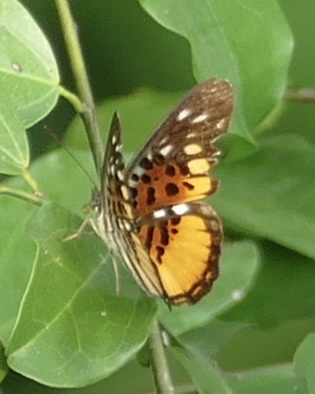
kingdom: Animalia
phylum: Arthropoda
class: Insecta
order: Lepidoptera
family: Nymphalidae
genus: Chloropoea
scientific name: Chloropoea warburgi
